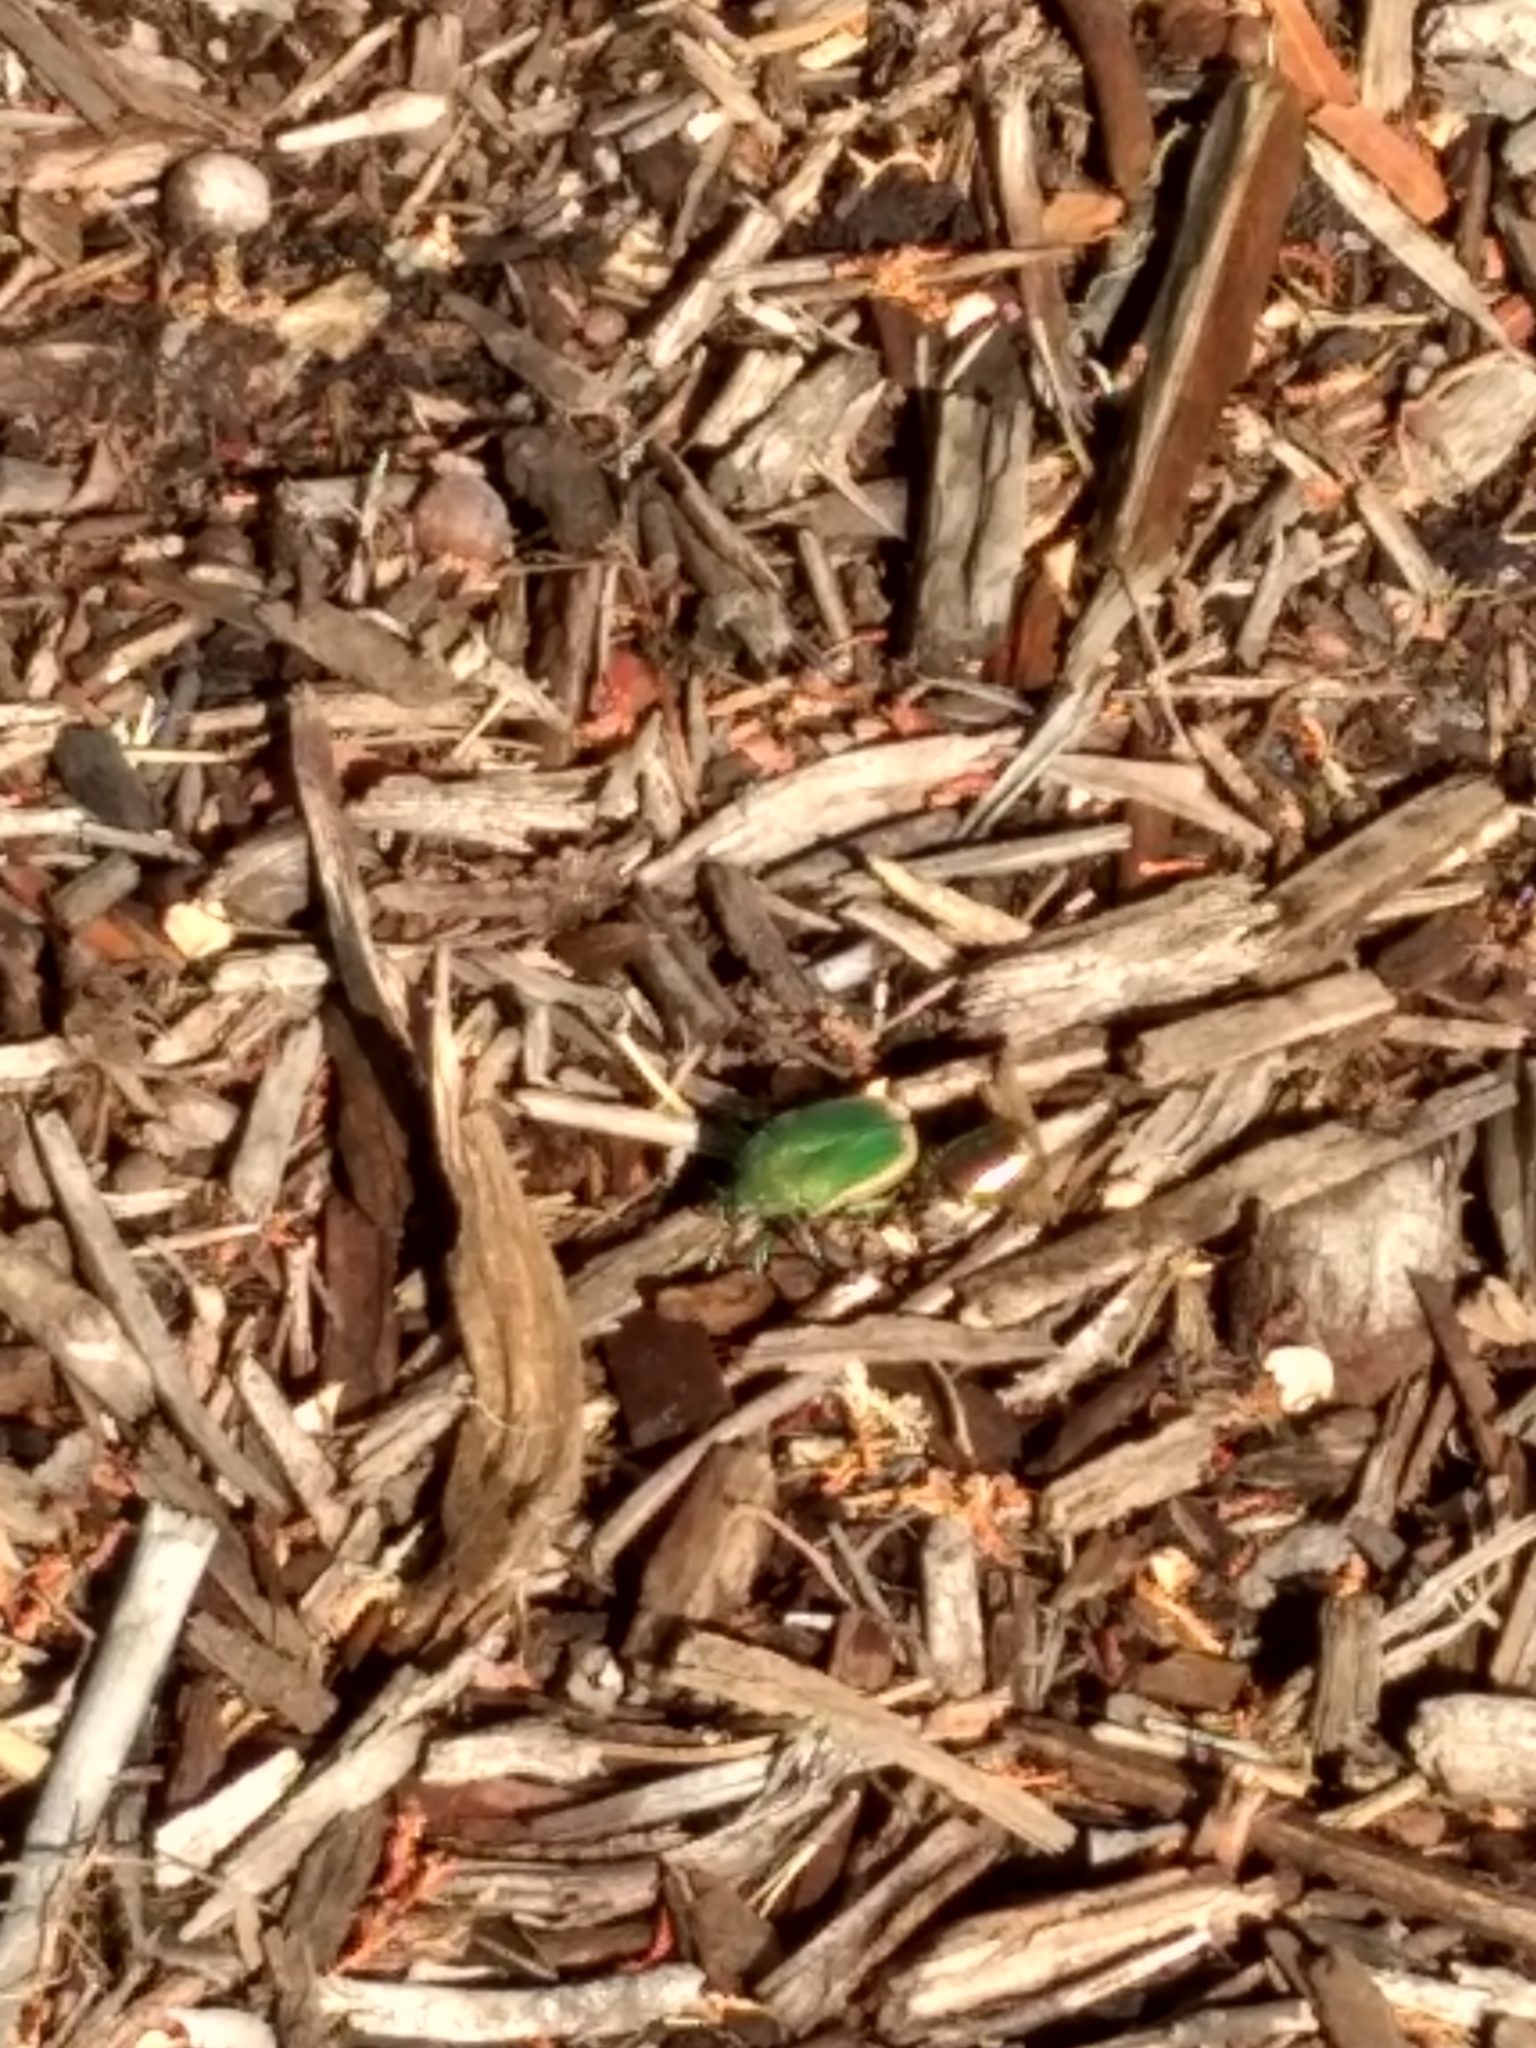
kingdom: Animalia
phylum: Arthropoda
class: Insecta
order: Coleoptera
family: Scarabaeidae
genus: Cotinis
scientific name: Cotinis mutabilis
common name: Figeater beetle
